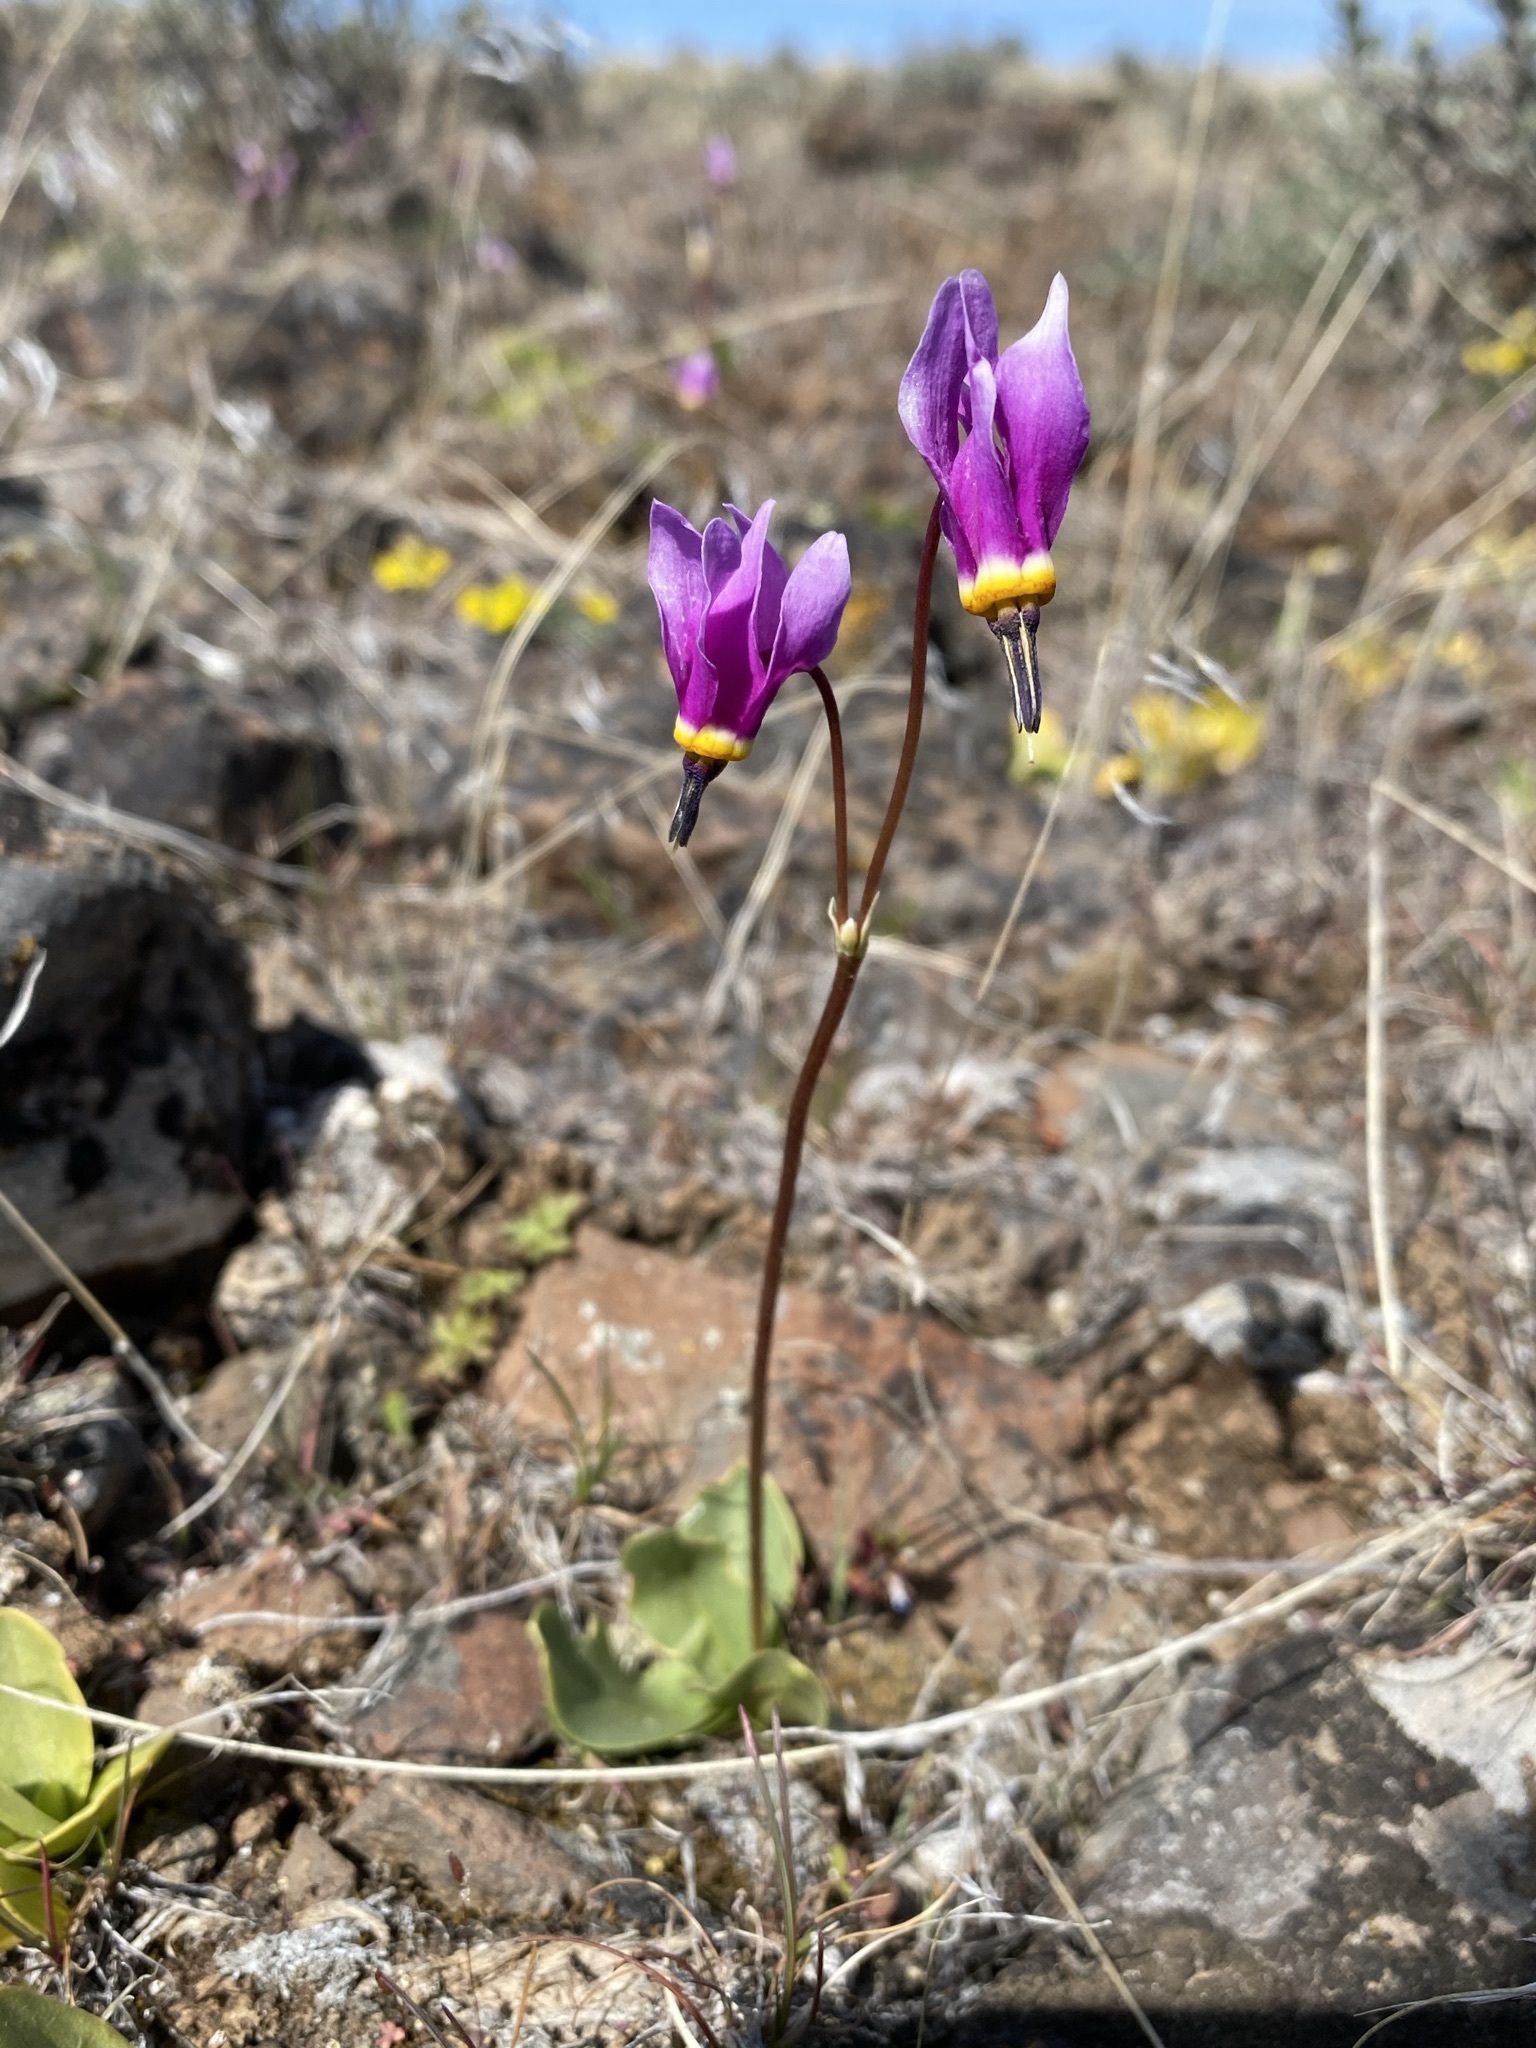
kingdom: Plantae
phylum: Tracheophyta
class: Magnoliopsida
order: Ericales
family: Primulaceae
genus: Dodecatheon
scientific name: Dodecatheon conjugens
